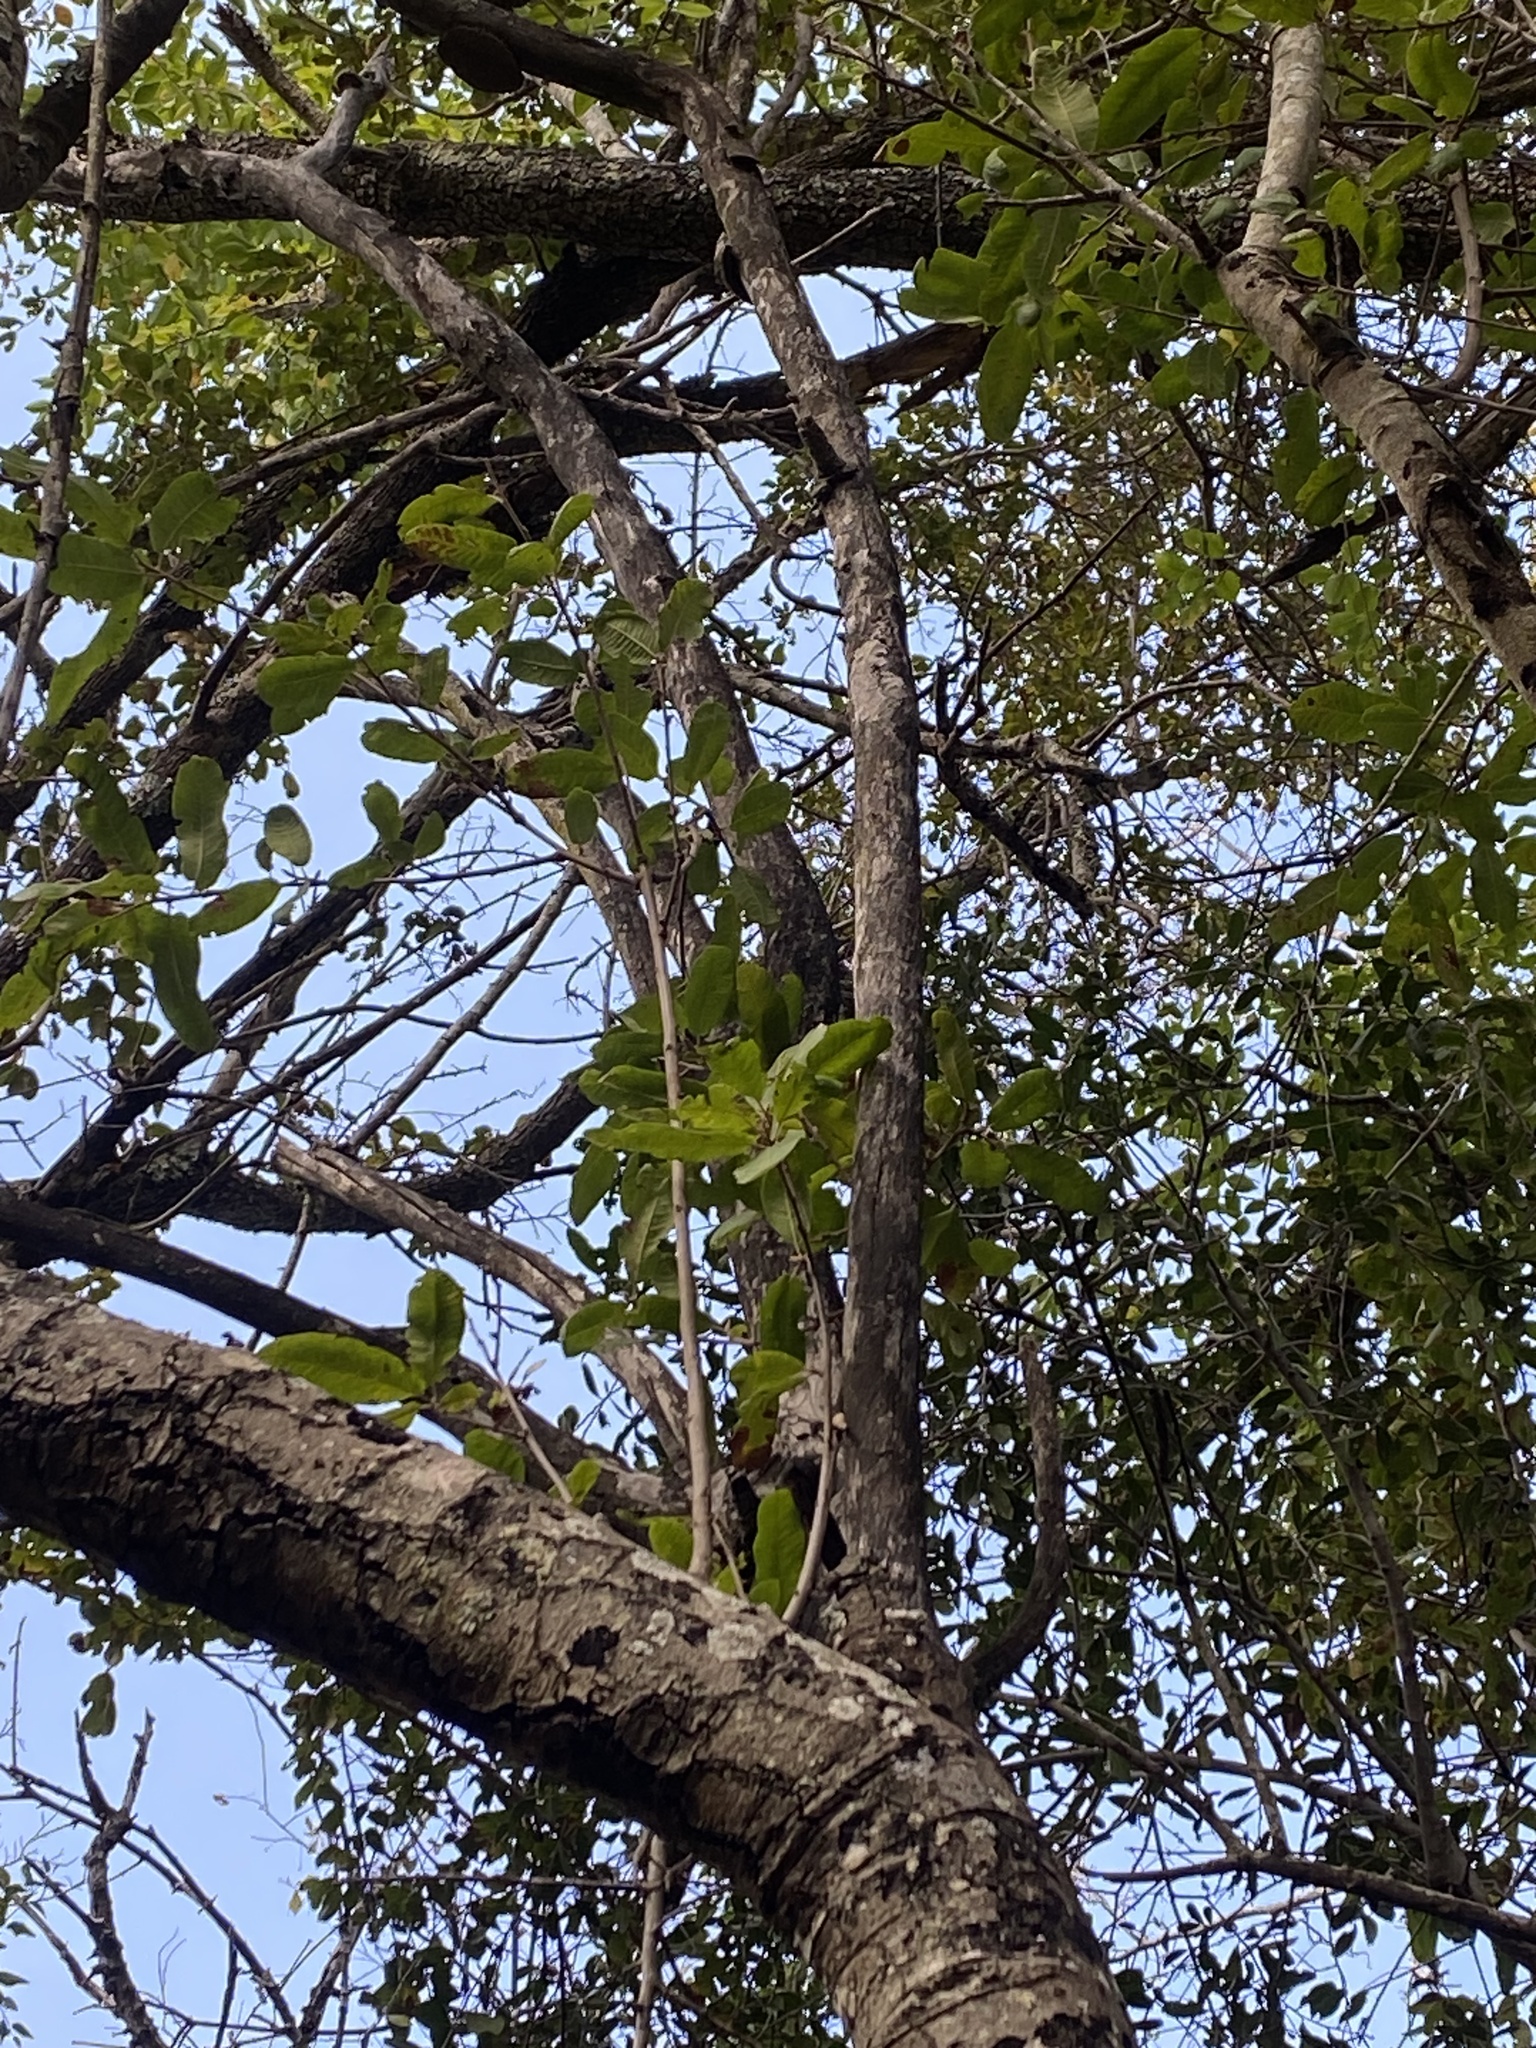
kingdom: Plantae
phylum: Tracheophyta
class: Magnoliopsida
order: Sapindales
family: Sapindaceae
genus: Pappea
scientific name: Pappea capensis
